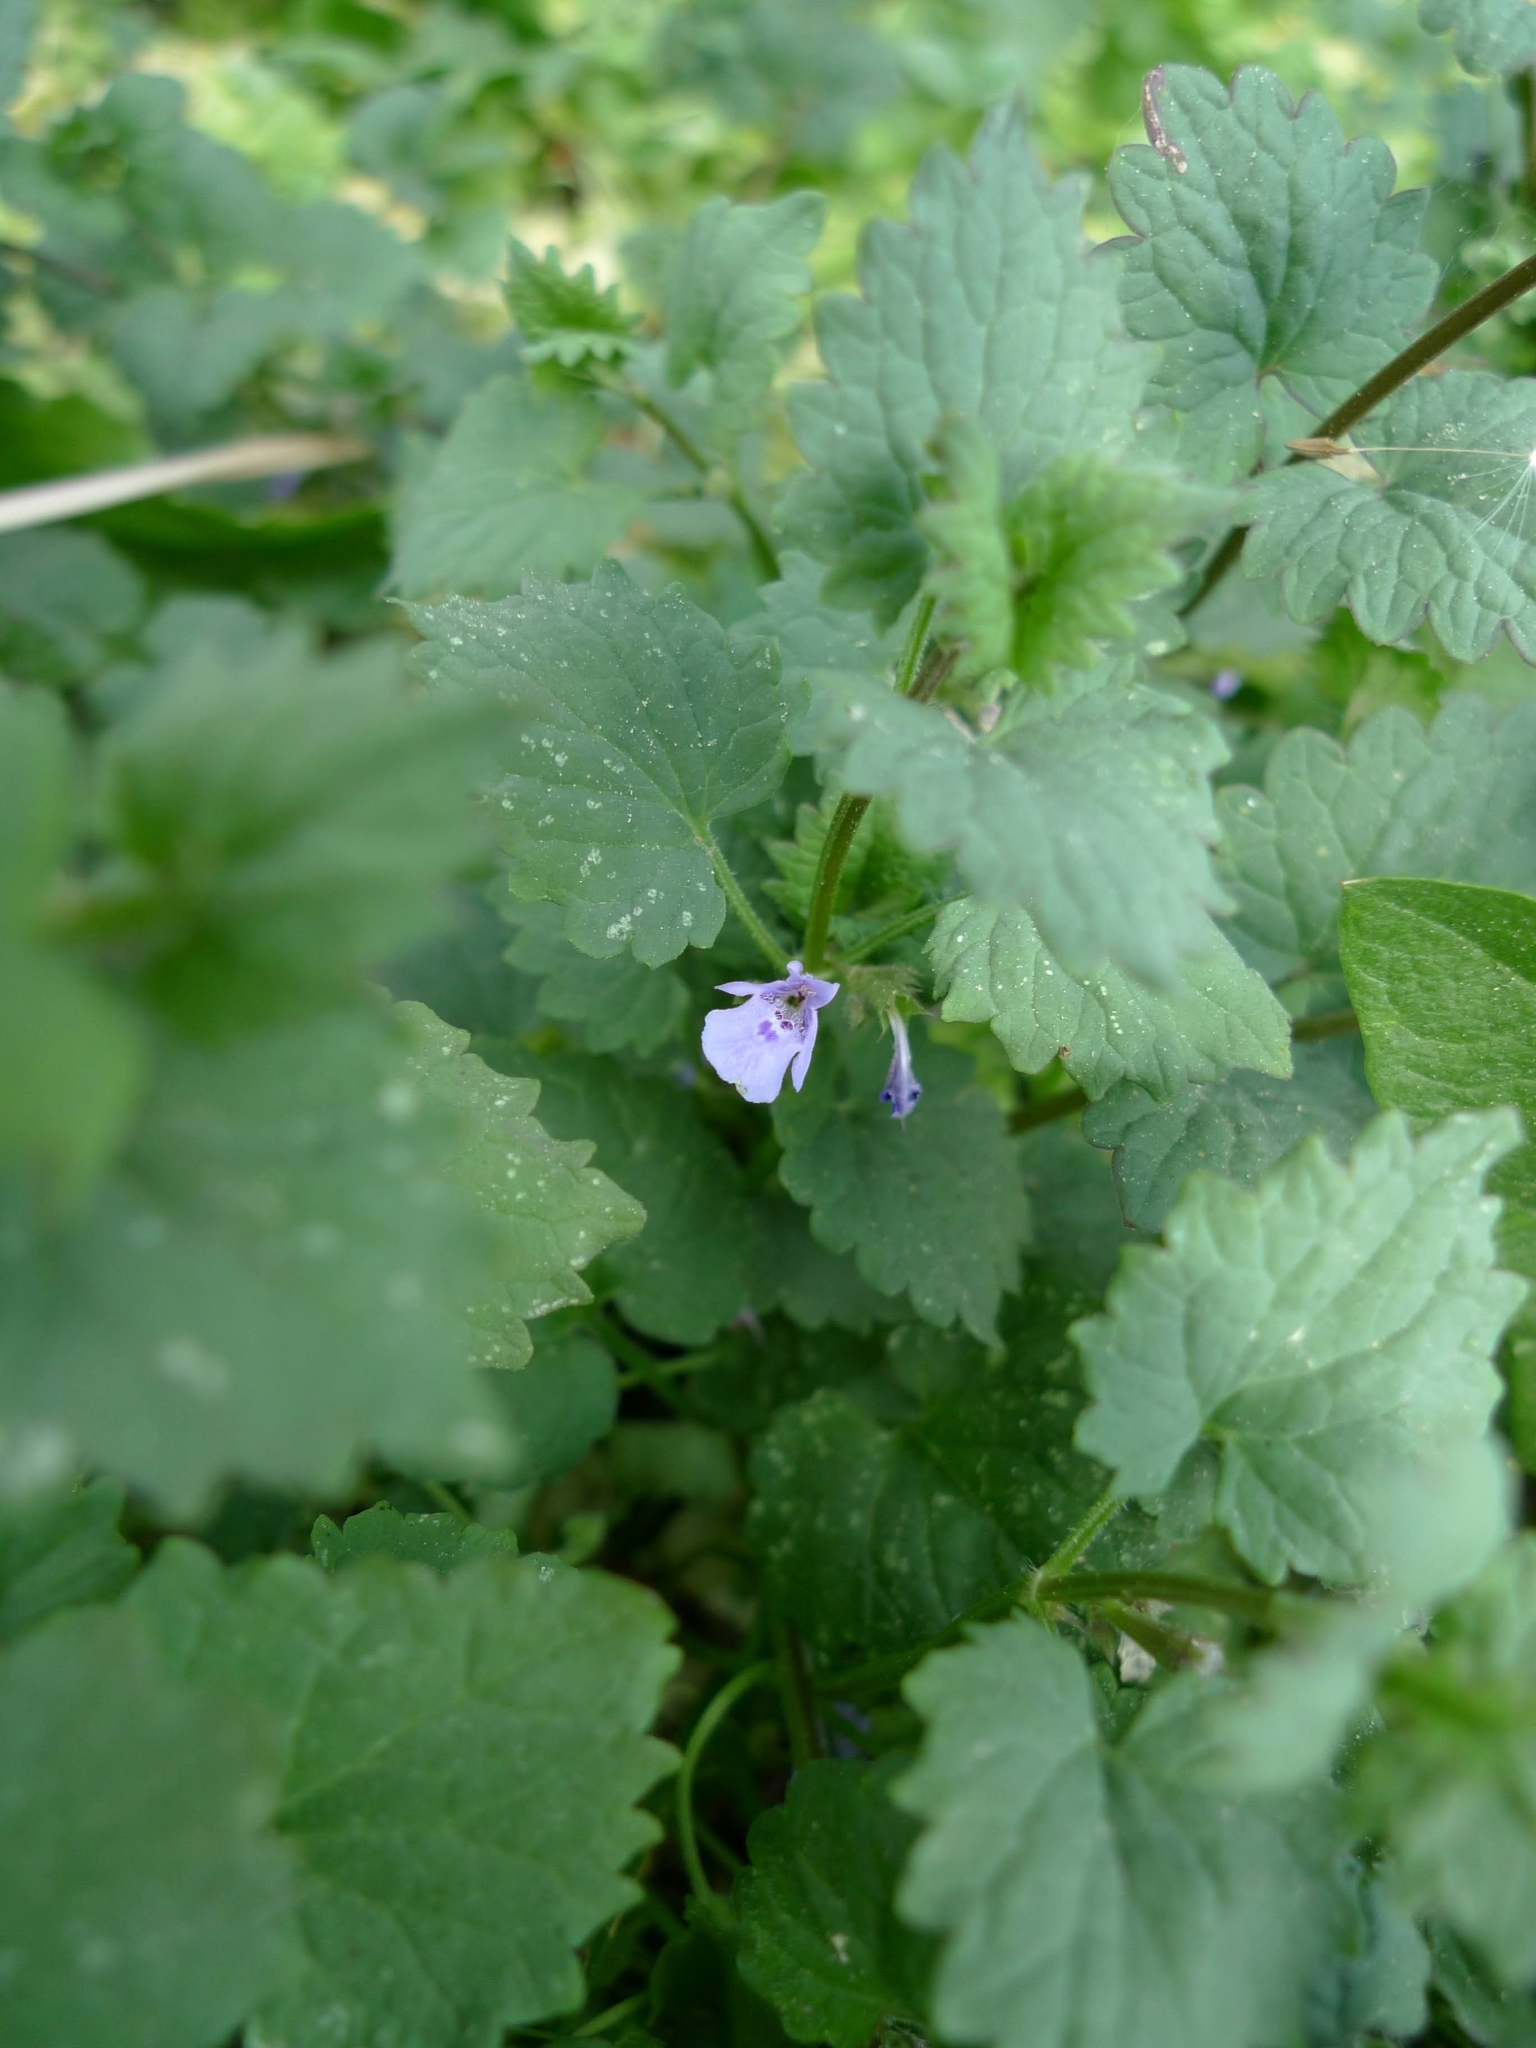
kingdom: Plantae
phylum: Tracheophyta
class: Magnoliopsida
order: Lamiales
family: Lamiaceae
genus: Glechoma
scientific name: Glechoma hederacea
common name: Ground ivy
